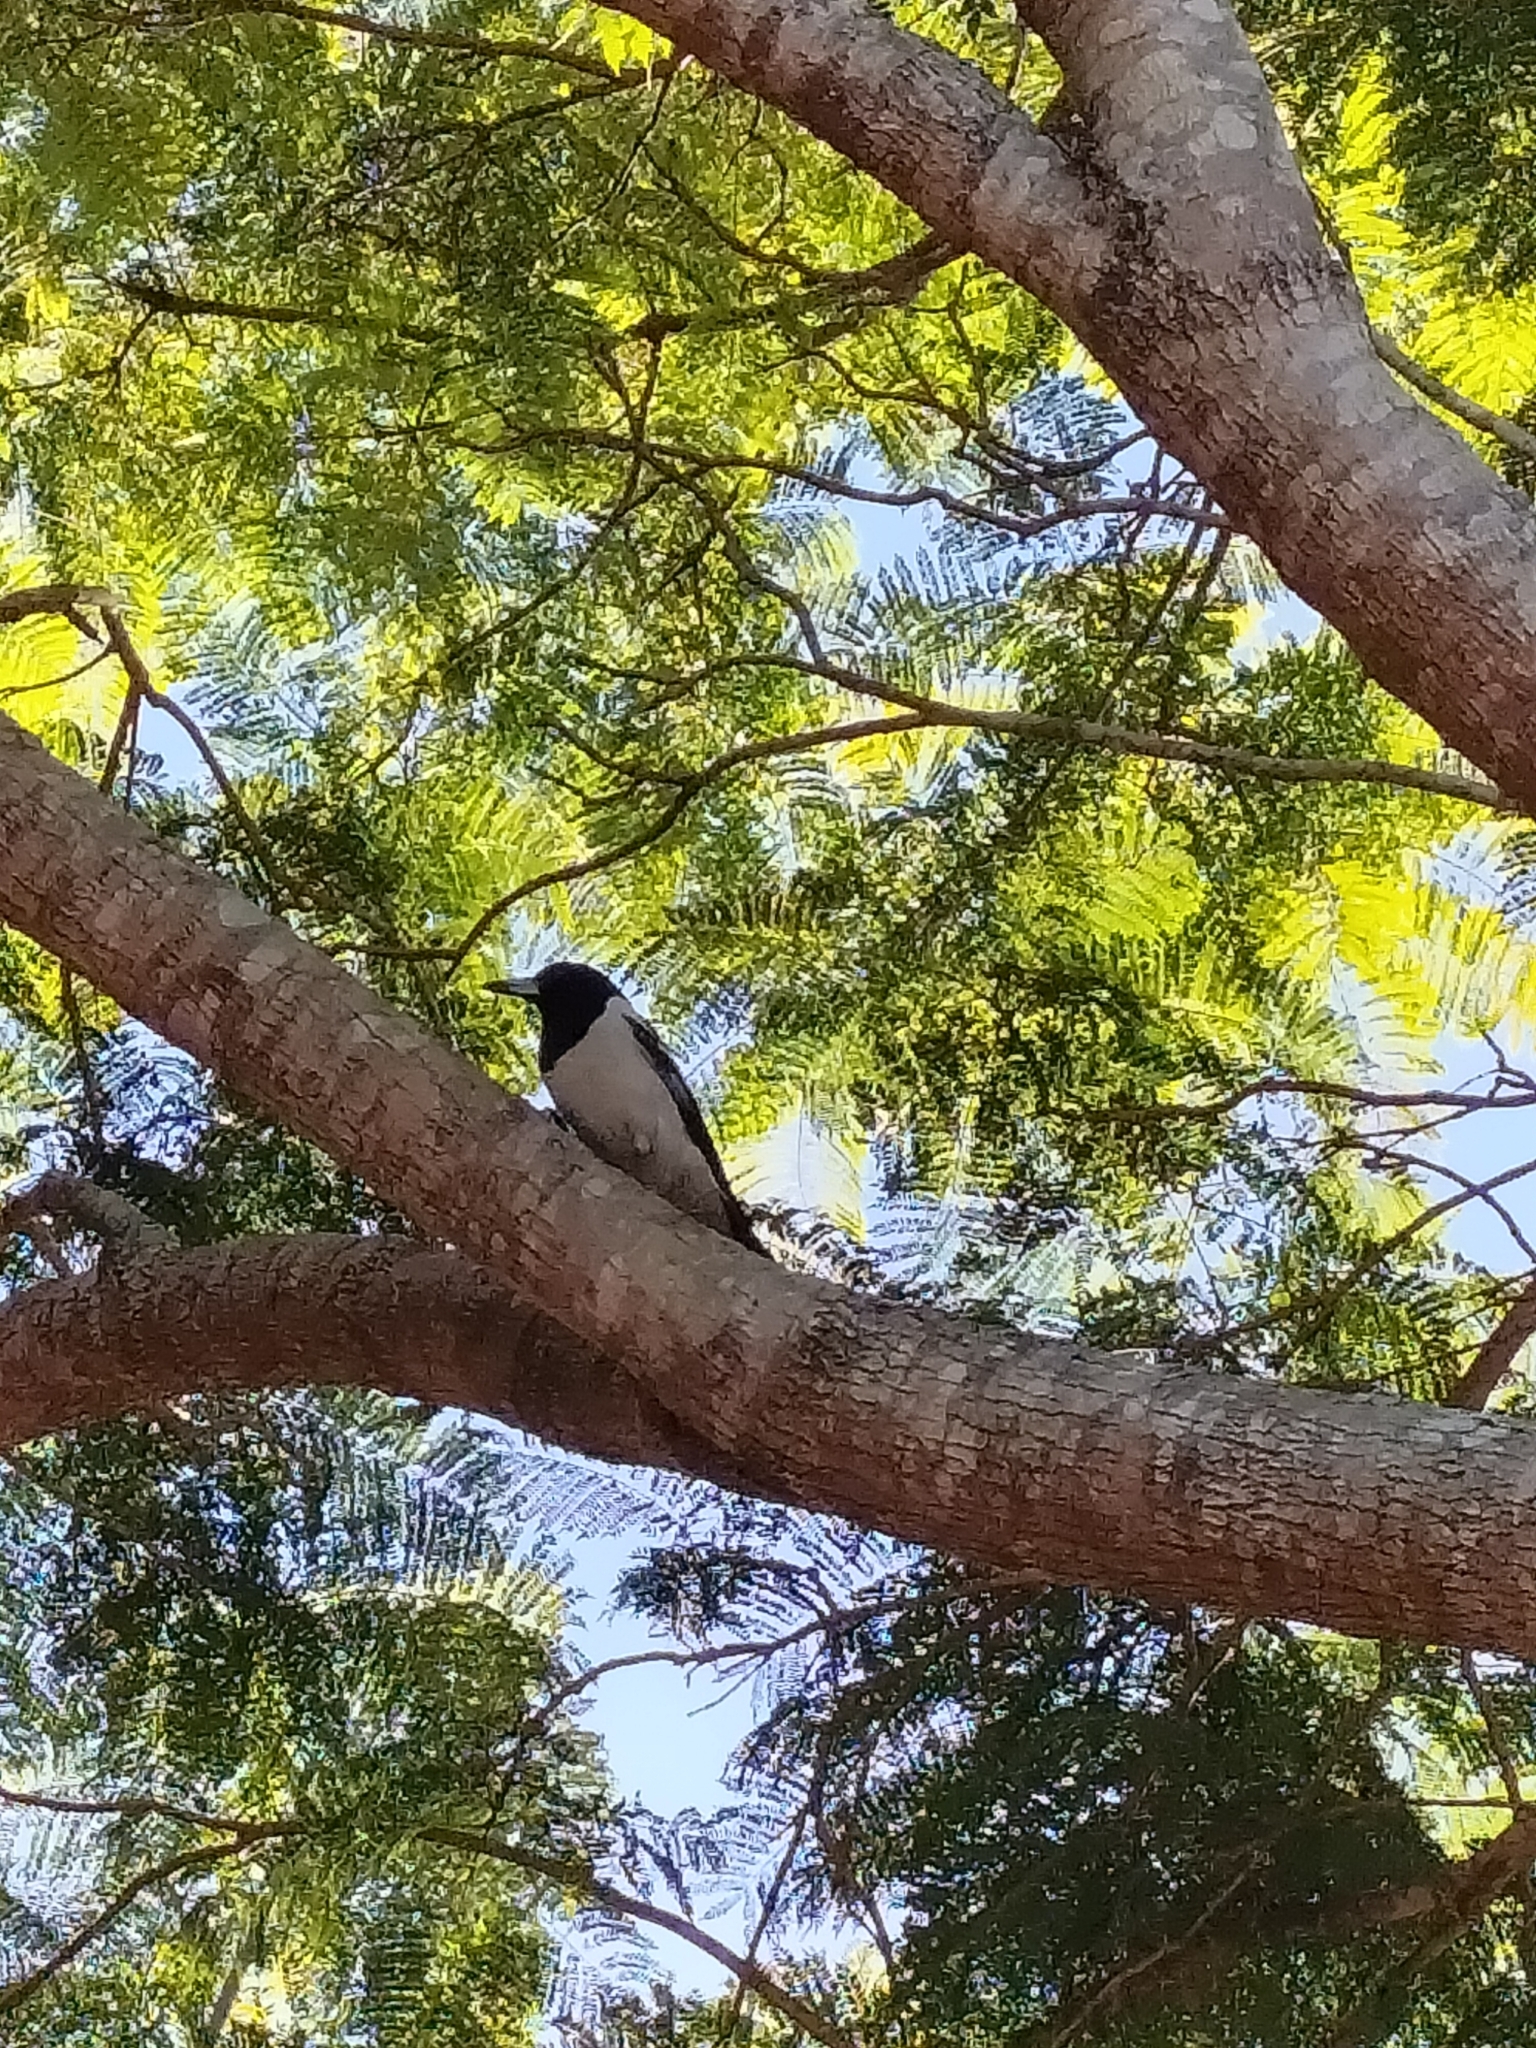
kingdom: Animalia
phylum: Chordata
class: Aves
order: Passeriformes
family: Cracticidae
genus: Cracticus
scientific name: Cracticus nigrogularis
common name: Pied butcherbird
